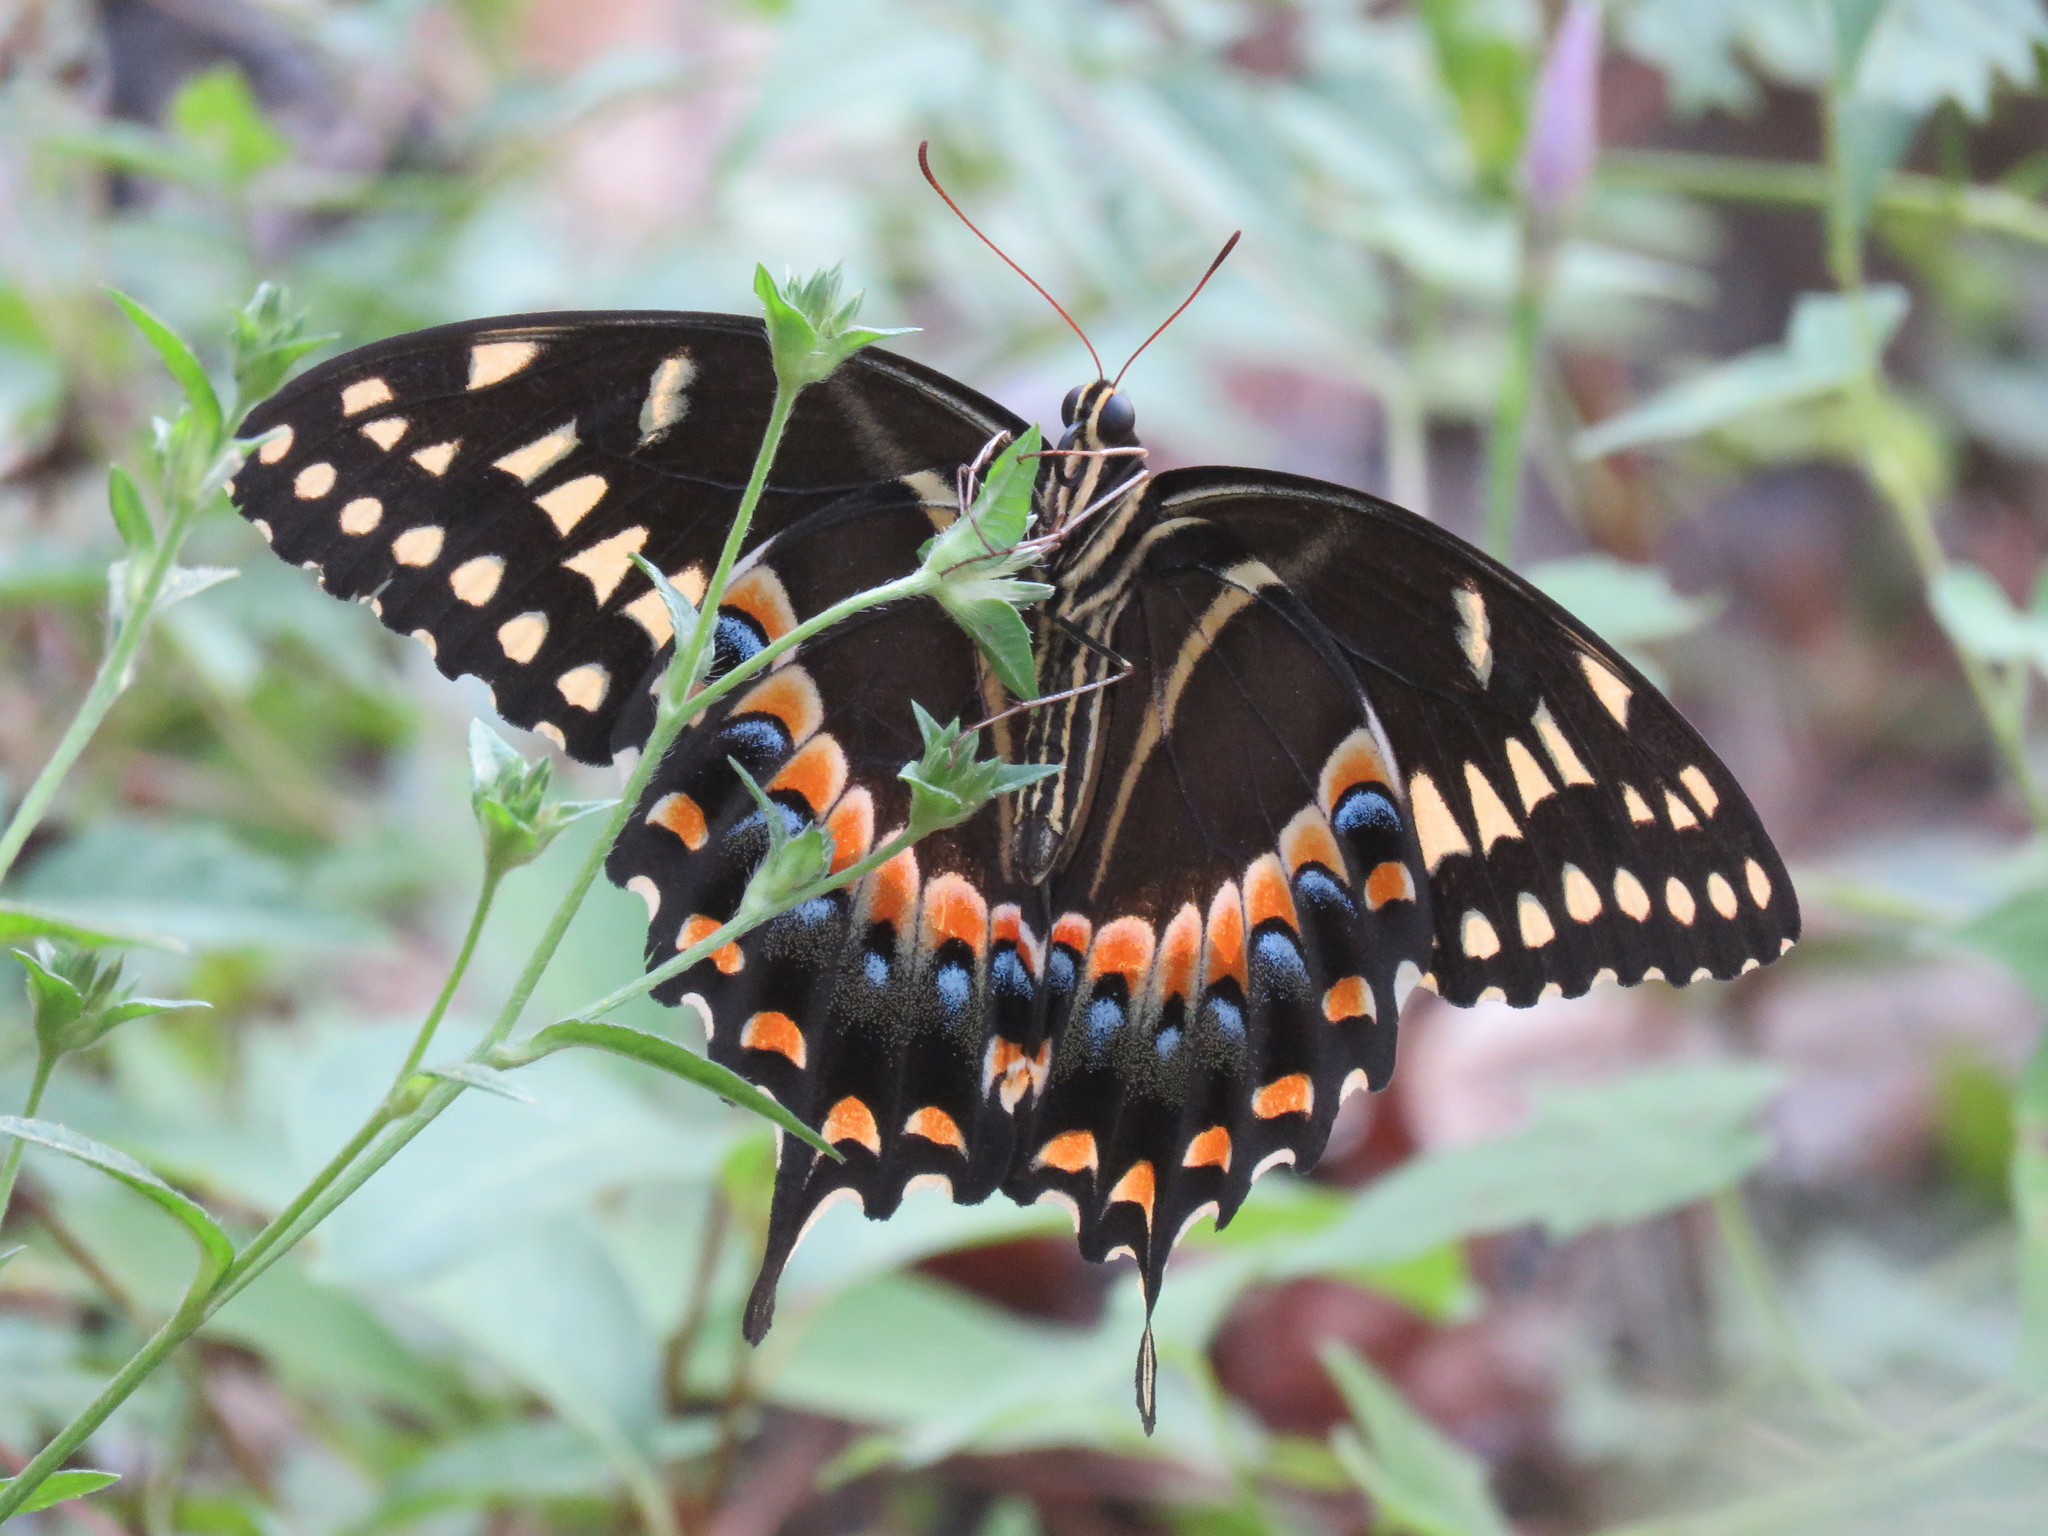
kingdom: Animalia
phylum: Arthropoda
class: Insecta
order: Lepidoptera
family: Papilionidae
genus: Papilio
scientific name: Papilio palamedes
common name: Palamedes swallowtail
